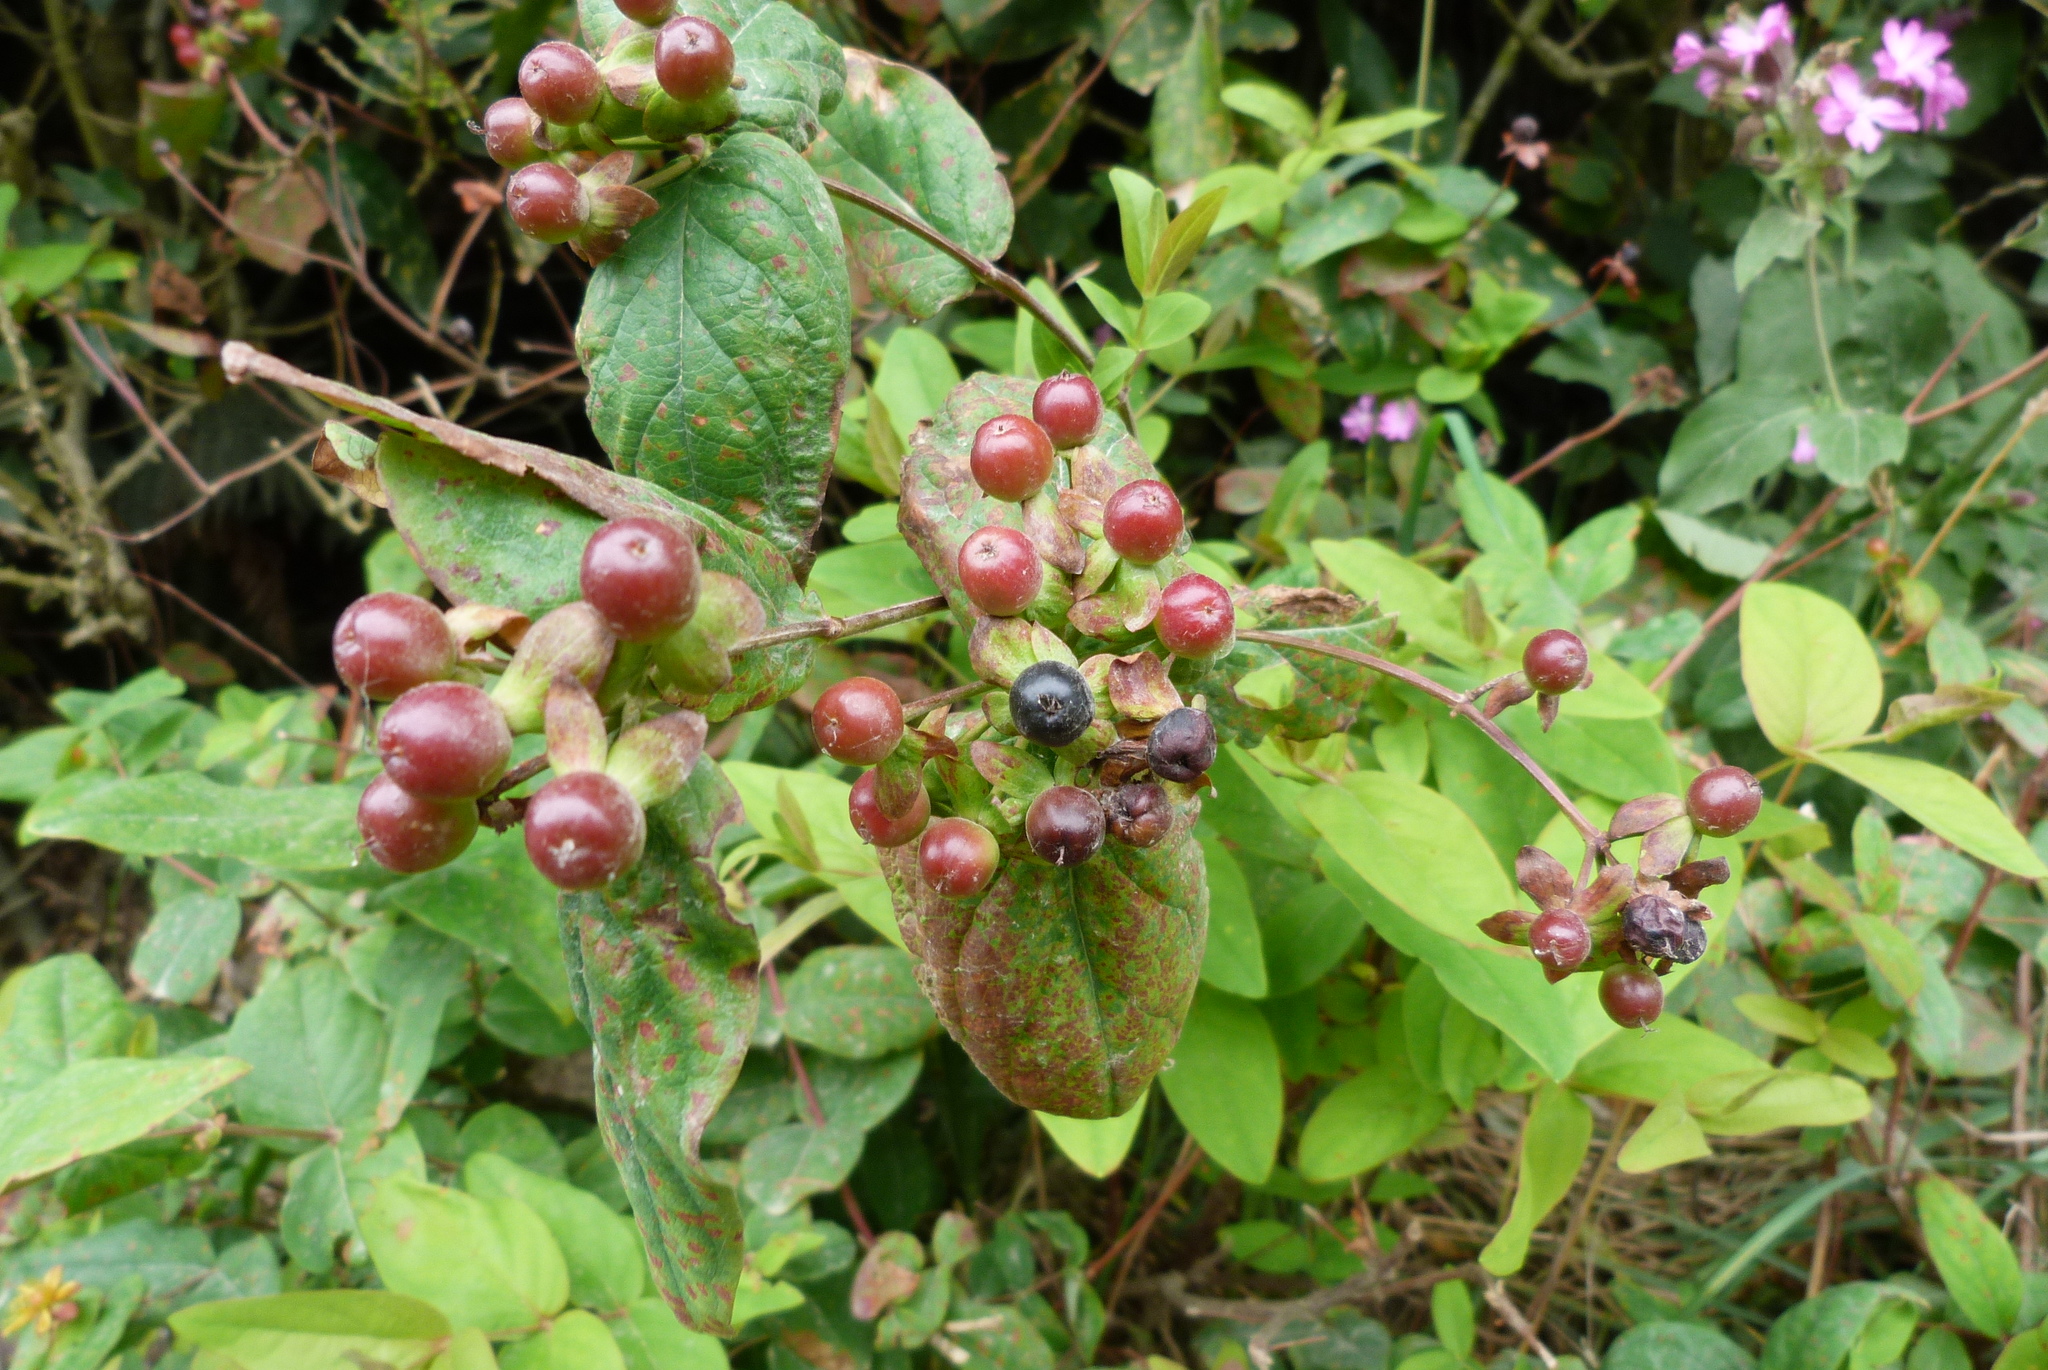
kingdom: Plantae
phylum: Tracheophyta
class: Magnoliopsida
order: Malpighiales
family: Hypericaceae
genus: Hypericum
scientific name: Hypericum androsaemum
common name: Sweet-amber
